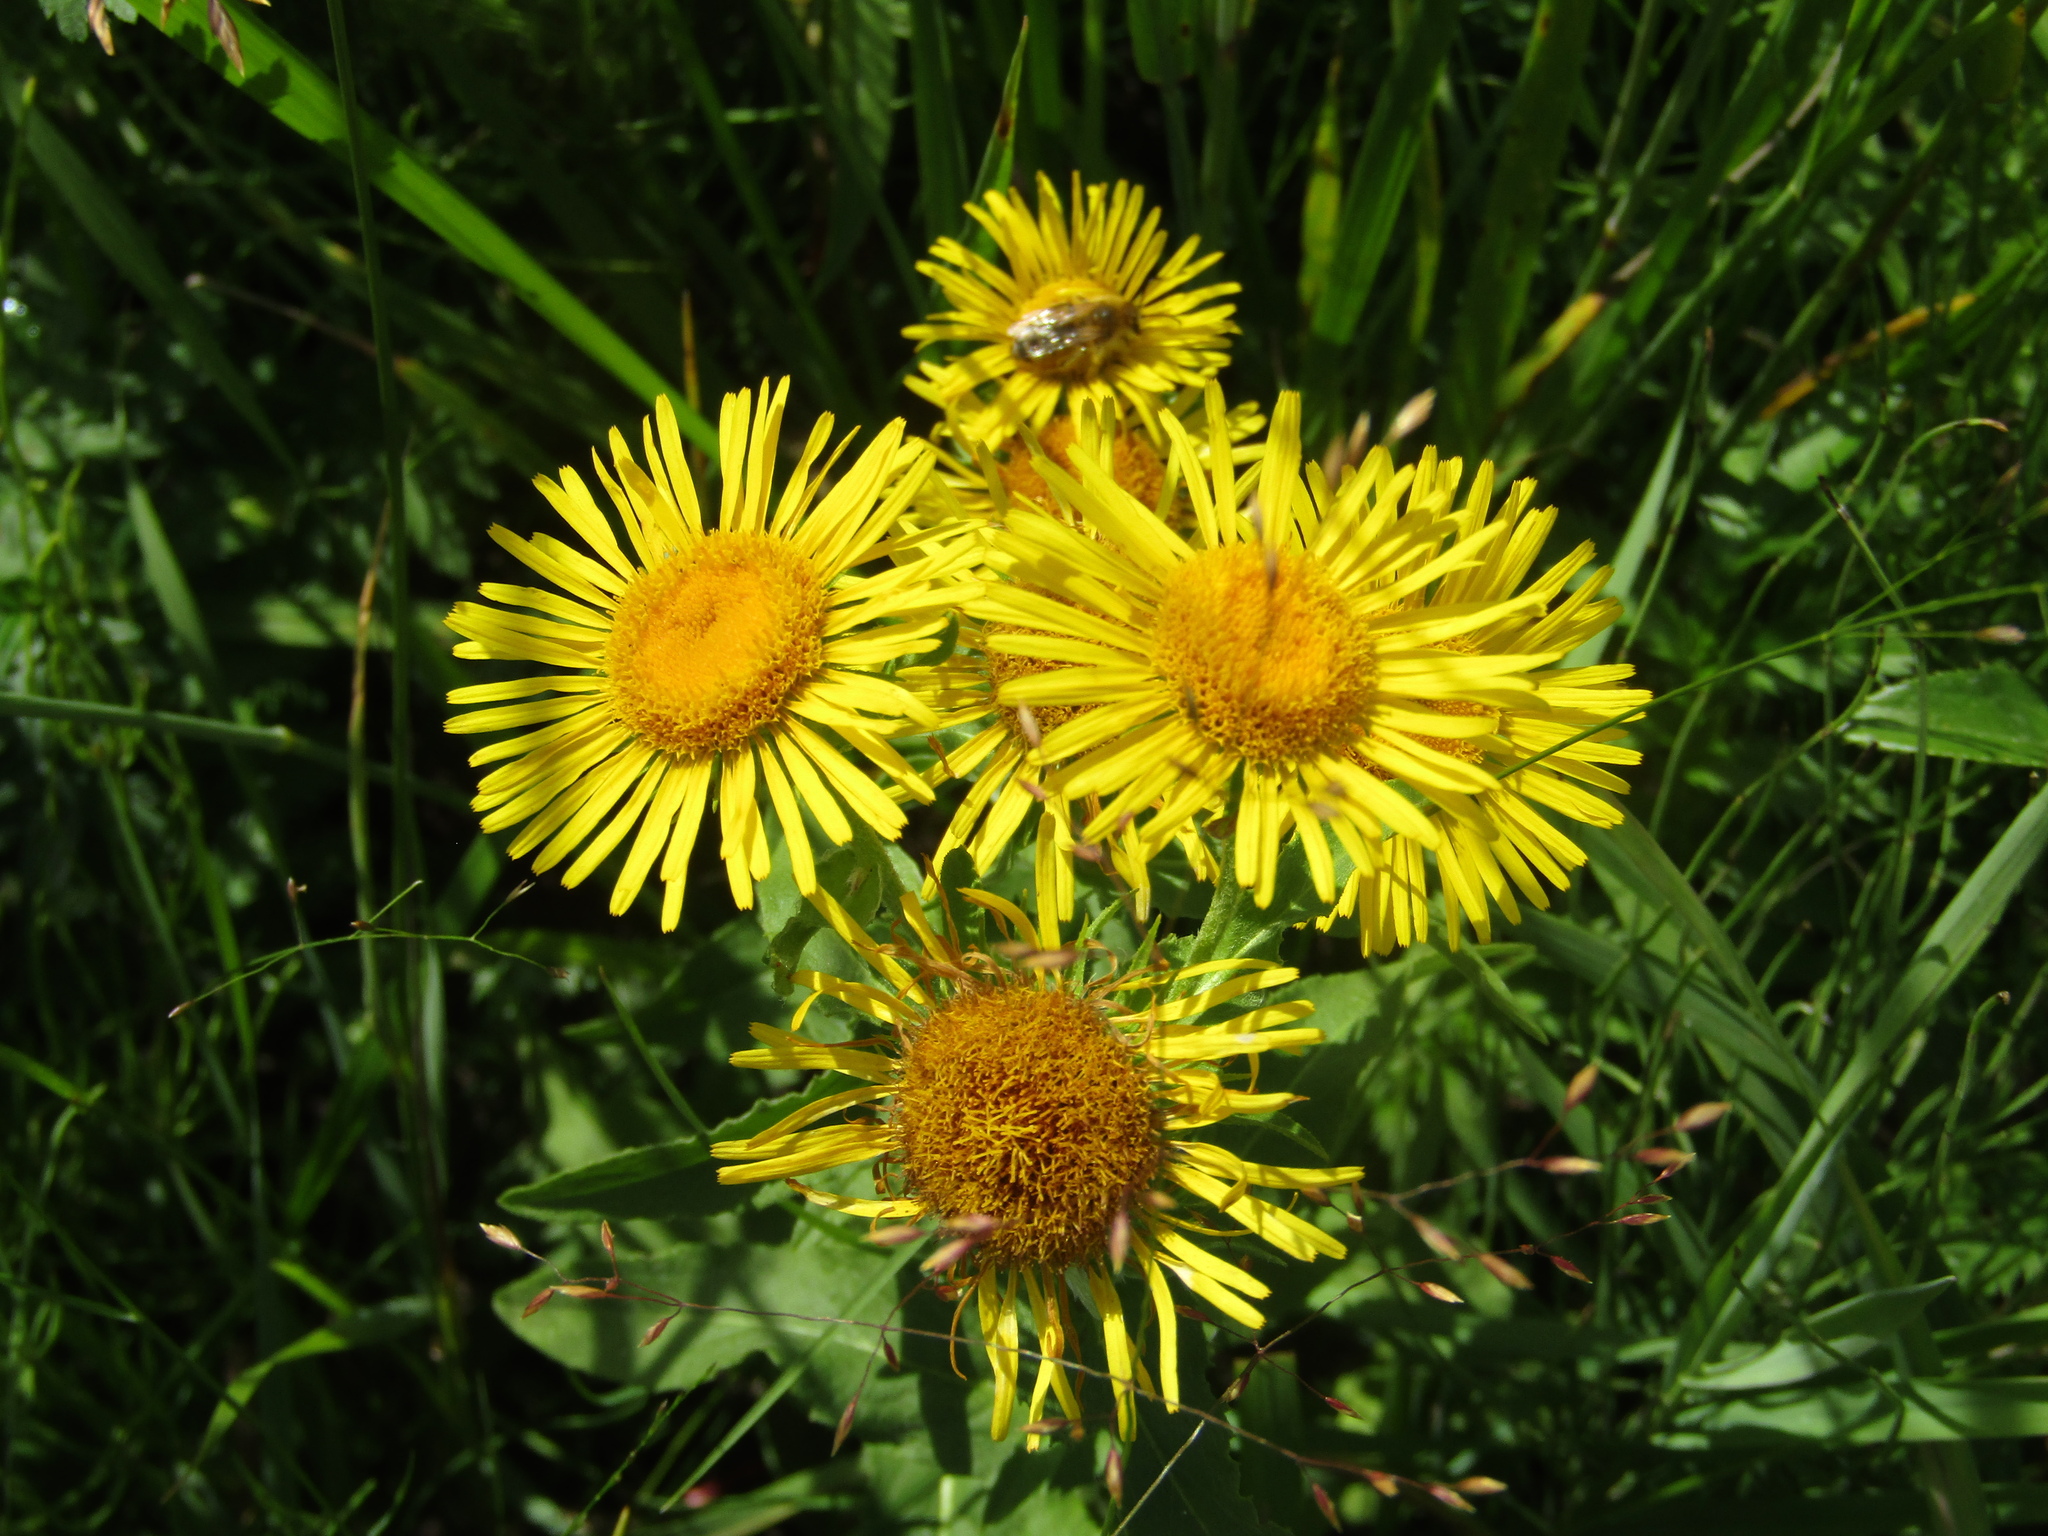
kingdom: Plantae
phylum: Tracheophyta
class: Magnoliopsida
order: Asterales
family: Asteraceae
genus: Pentanema
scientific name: Pentanema britannicum
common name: British elecampane
